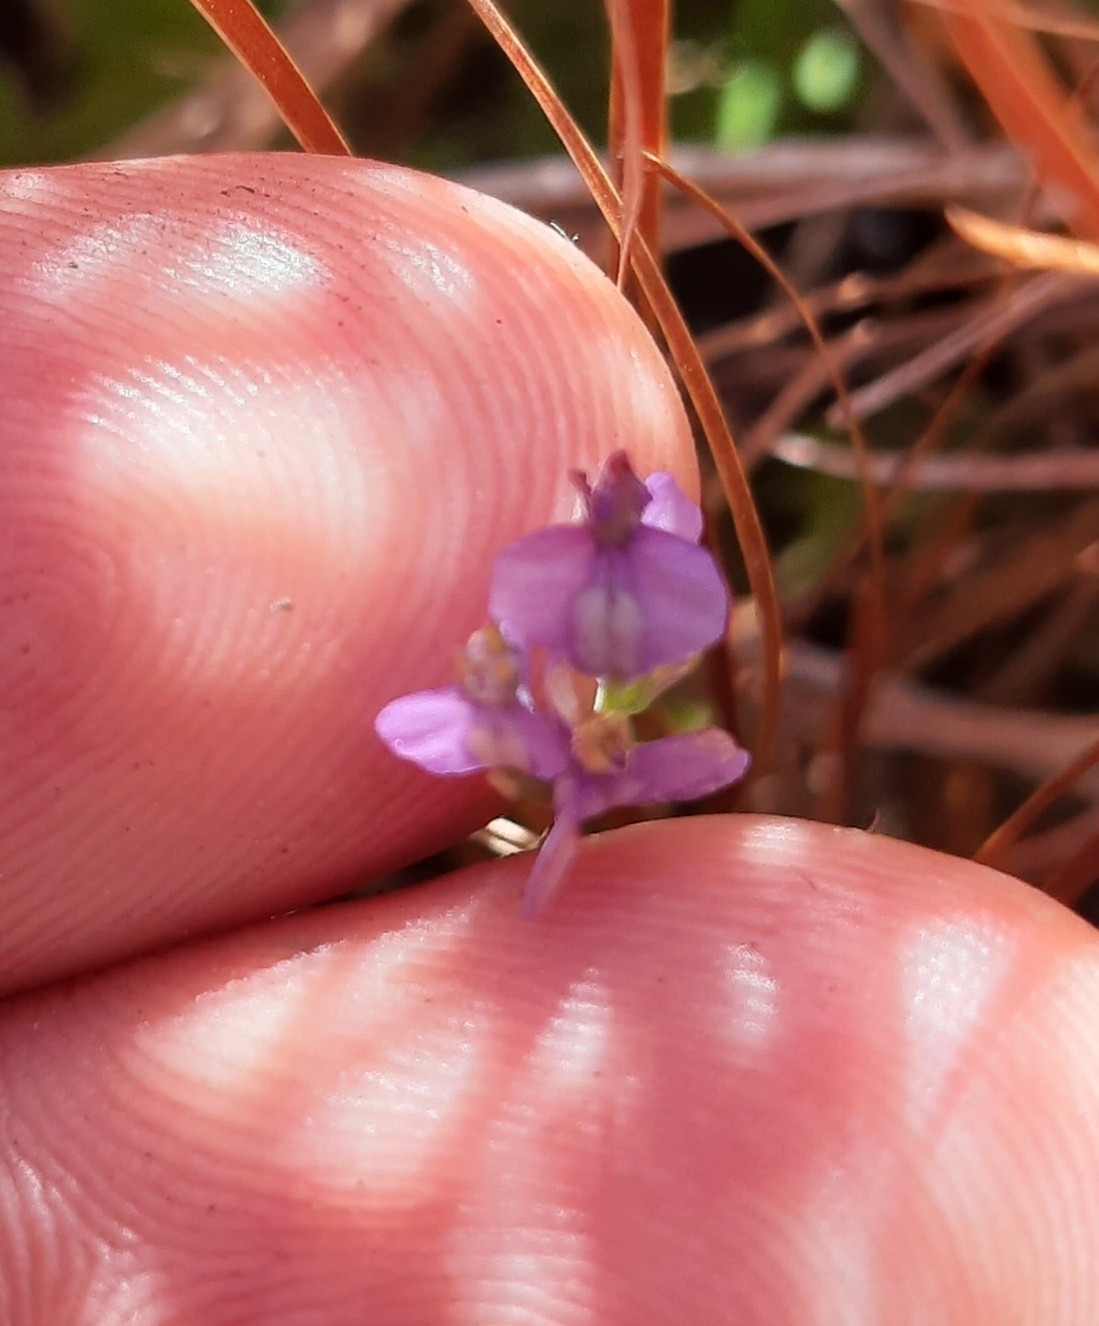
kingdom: Plantae
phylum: Tracheophyta
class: Liliopsida
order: Dioscoreales
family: Burmanniaceae
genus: Burmannia
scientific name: Burmannia biflora
